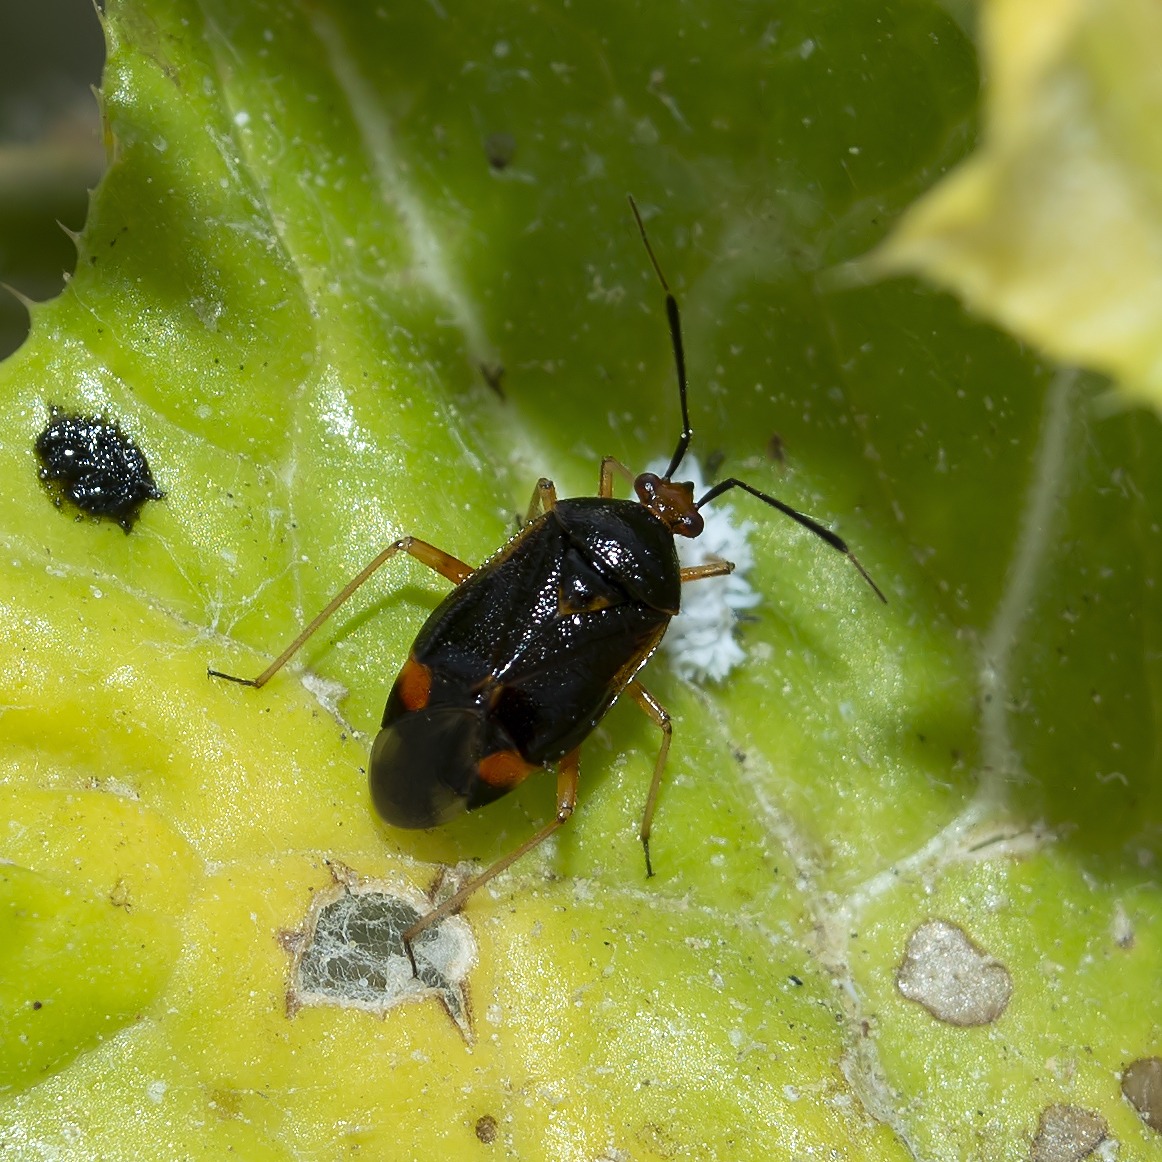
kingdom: Animalia
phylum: Arthropoda
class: Insecta
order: Hemiptera
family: Miridae
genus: Deraeocoris
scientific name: Deraeocoris ruber
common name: Plant bug
